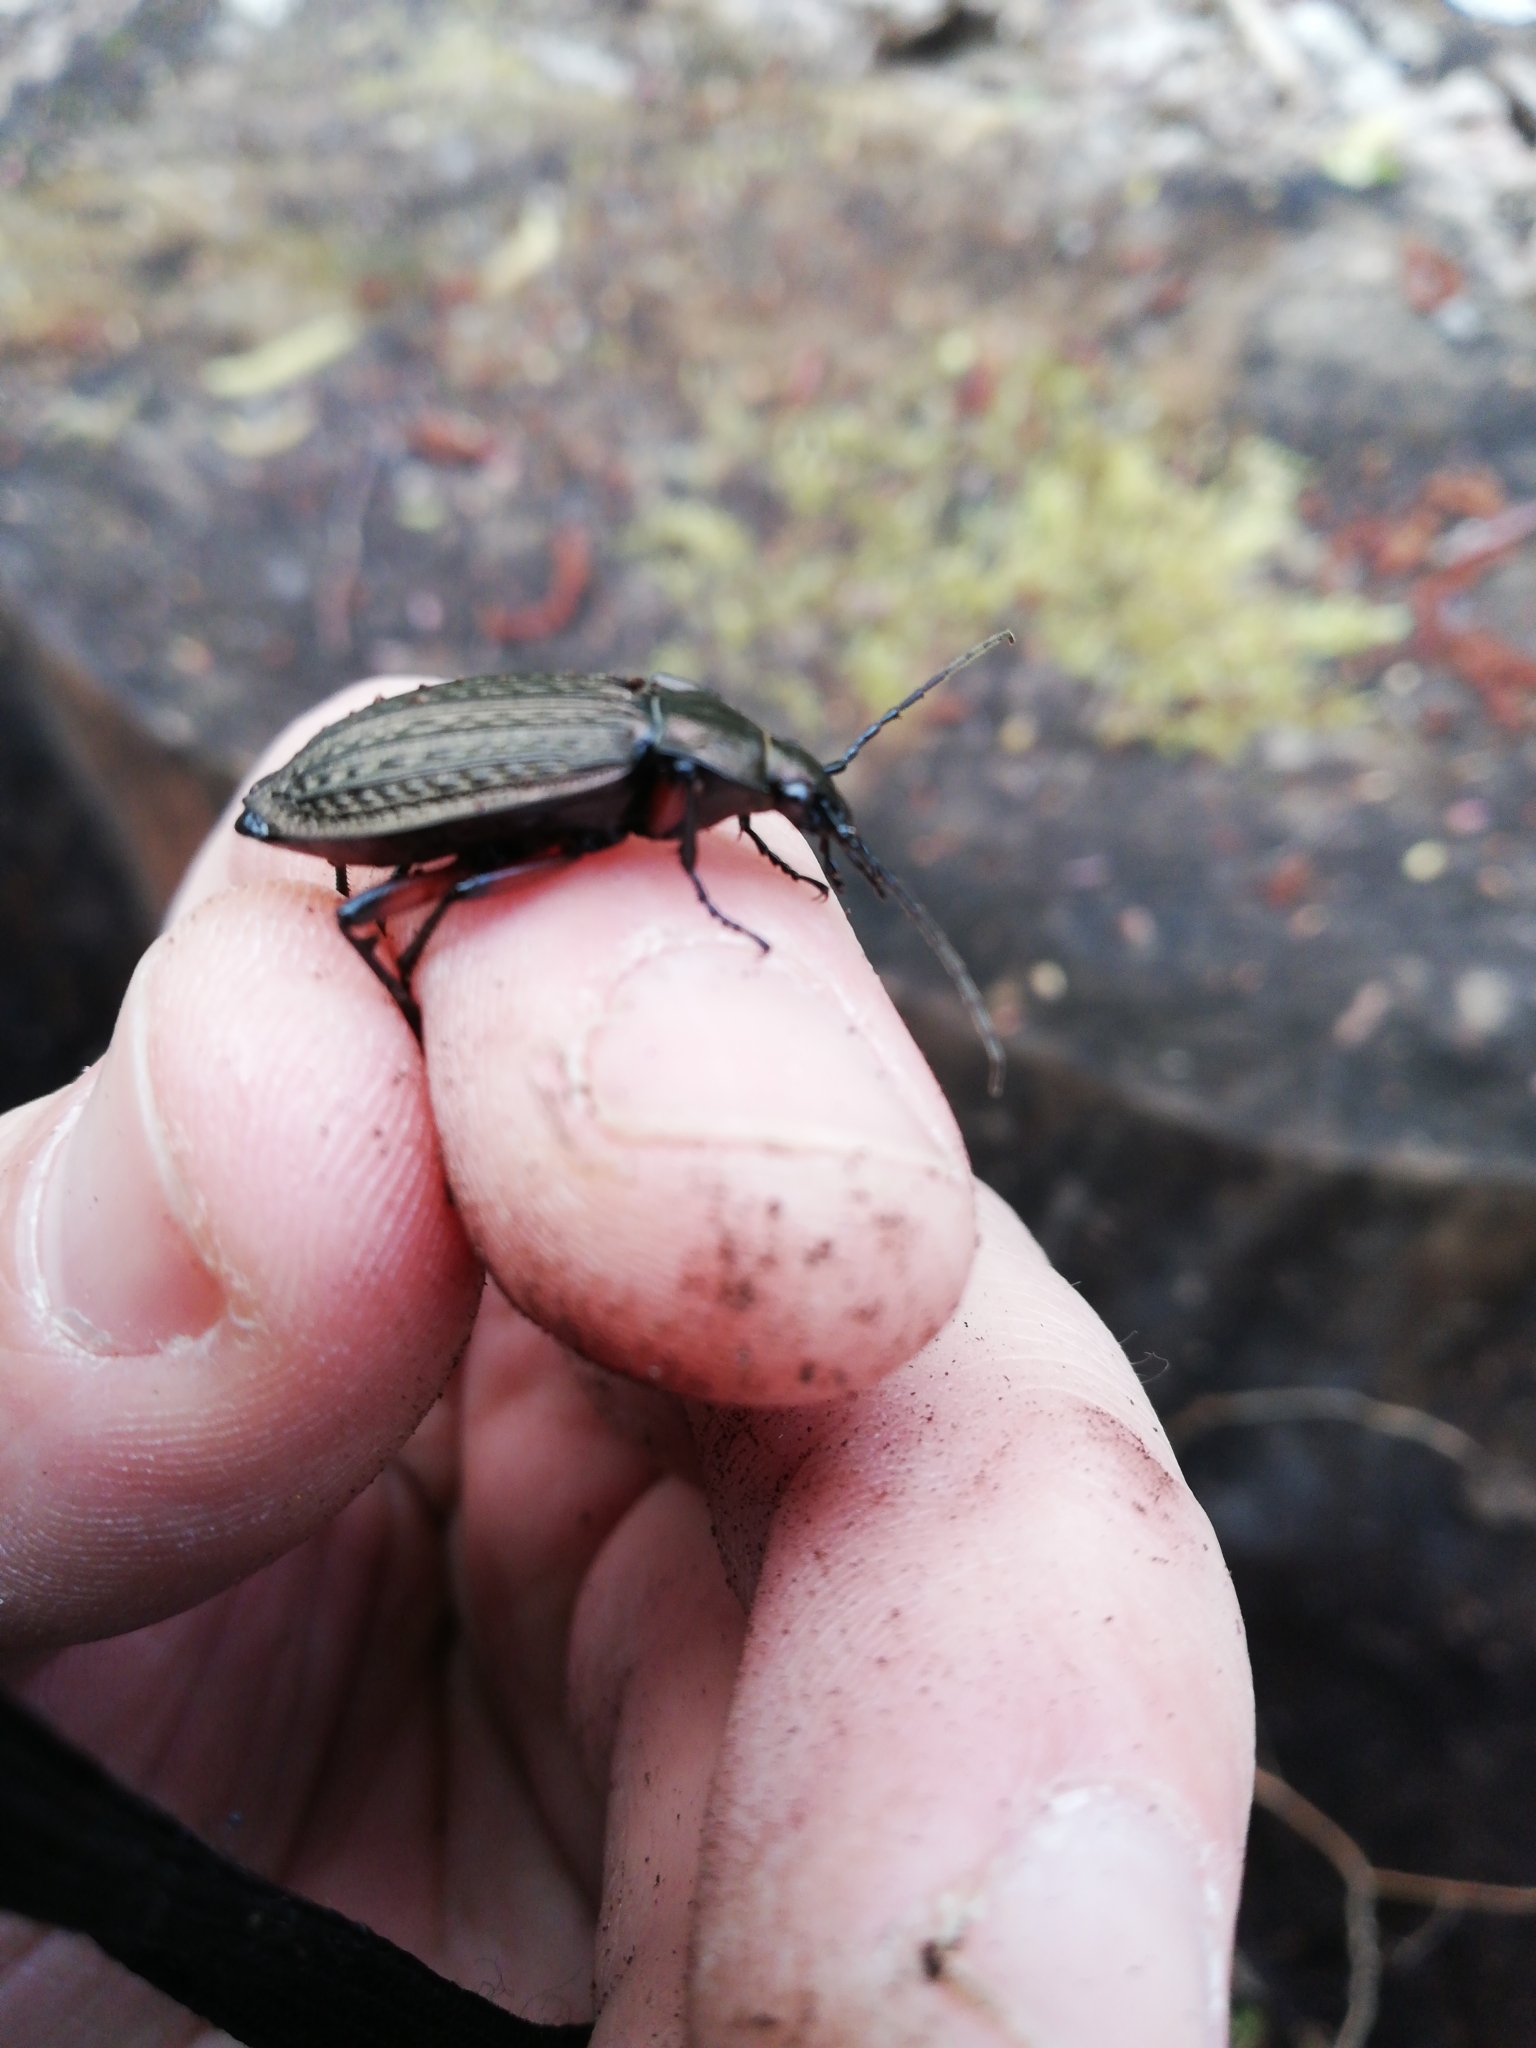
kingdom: Animalia
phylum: Arthropoda
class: Insecta
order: Coleoptera
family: Carabidae
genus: Carabus
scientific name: Carabus granulatus
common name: Granulate ground beetle
